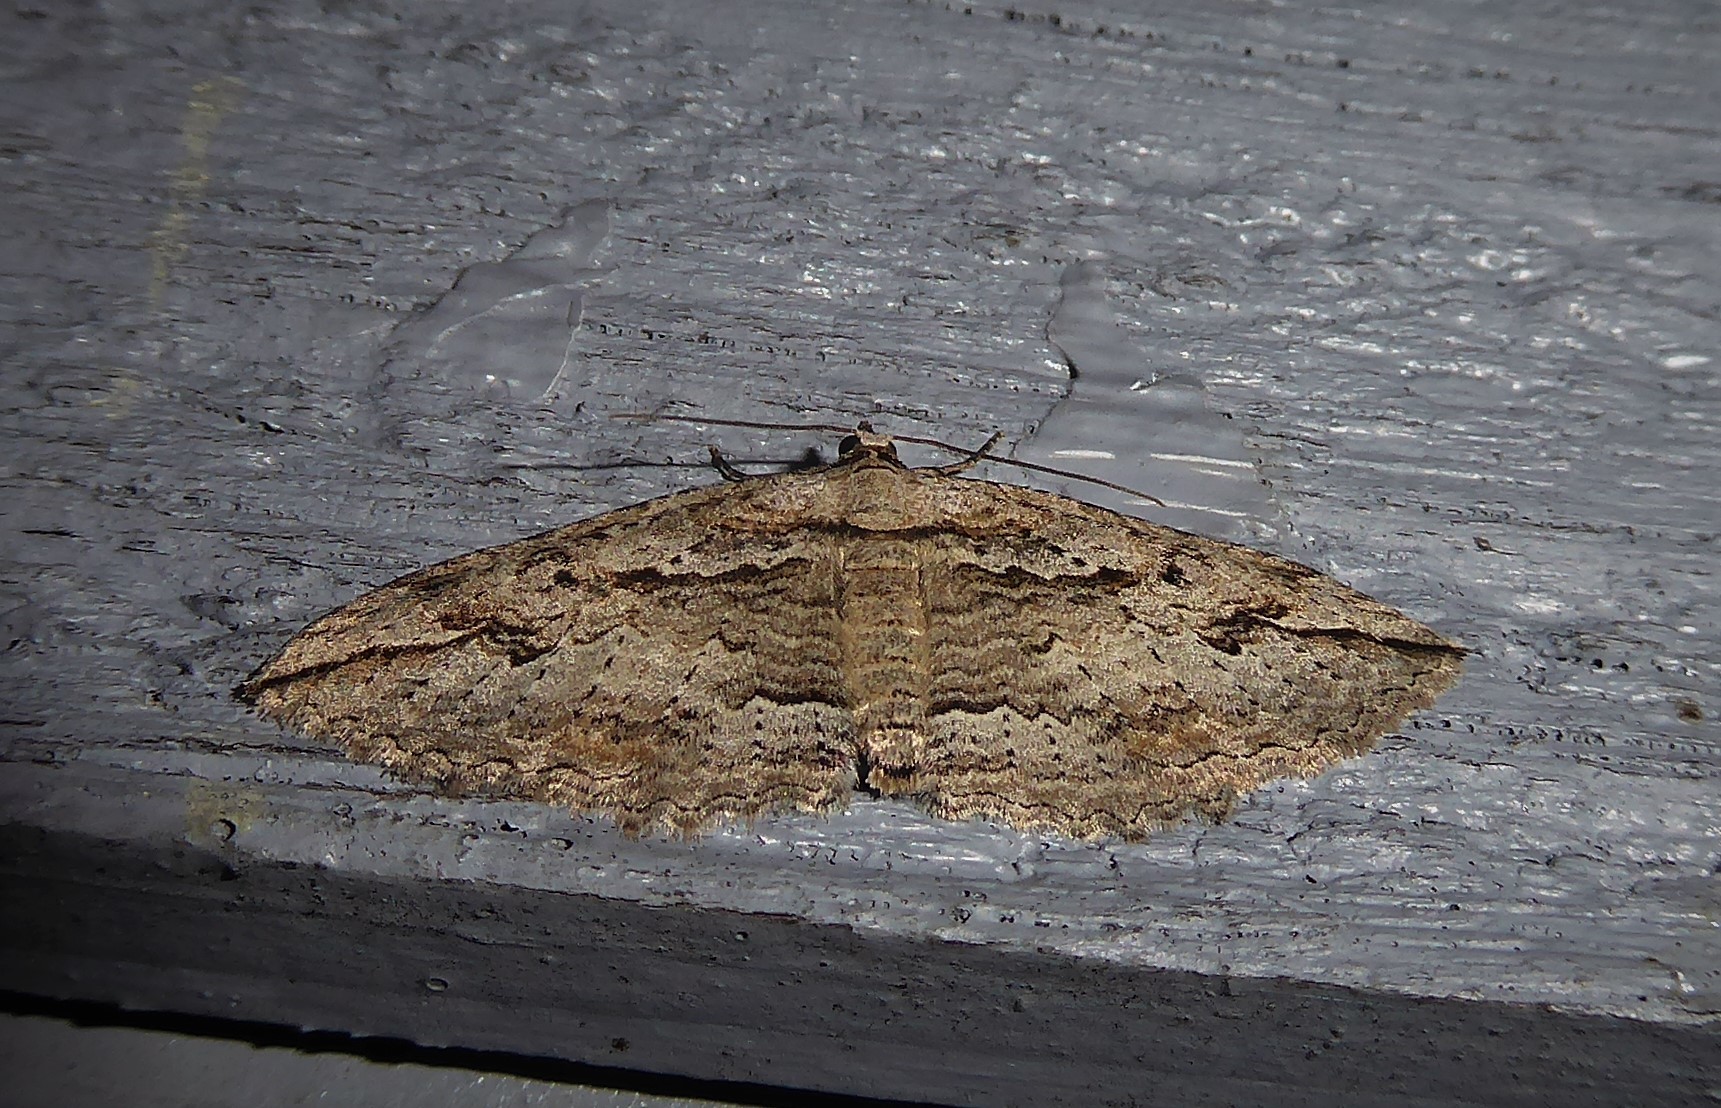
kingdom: Animalia
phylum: Arthropoda
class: Insecta
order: Lepidoptera
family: Geometridae
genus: Austrocidaria
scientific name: Austrocidaria gobiata
